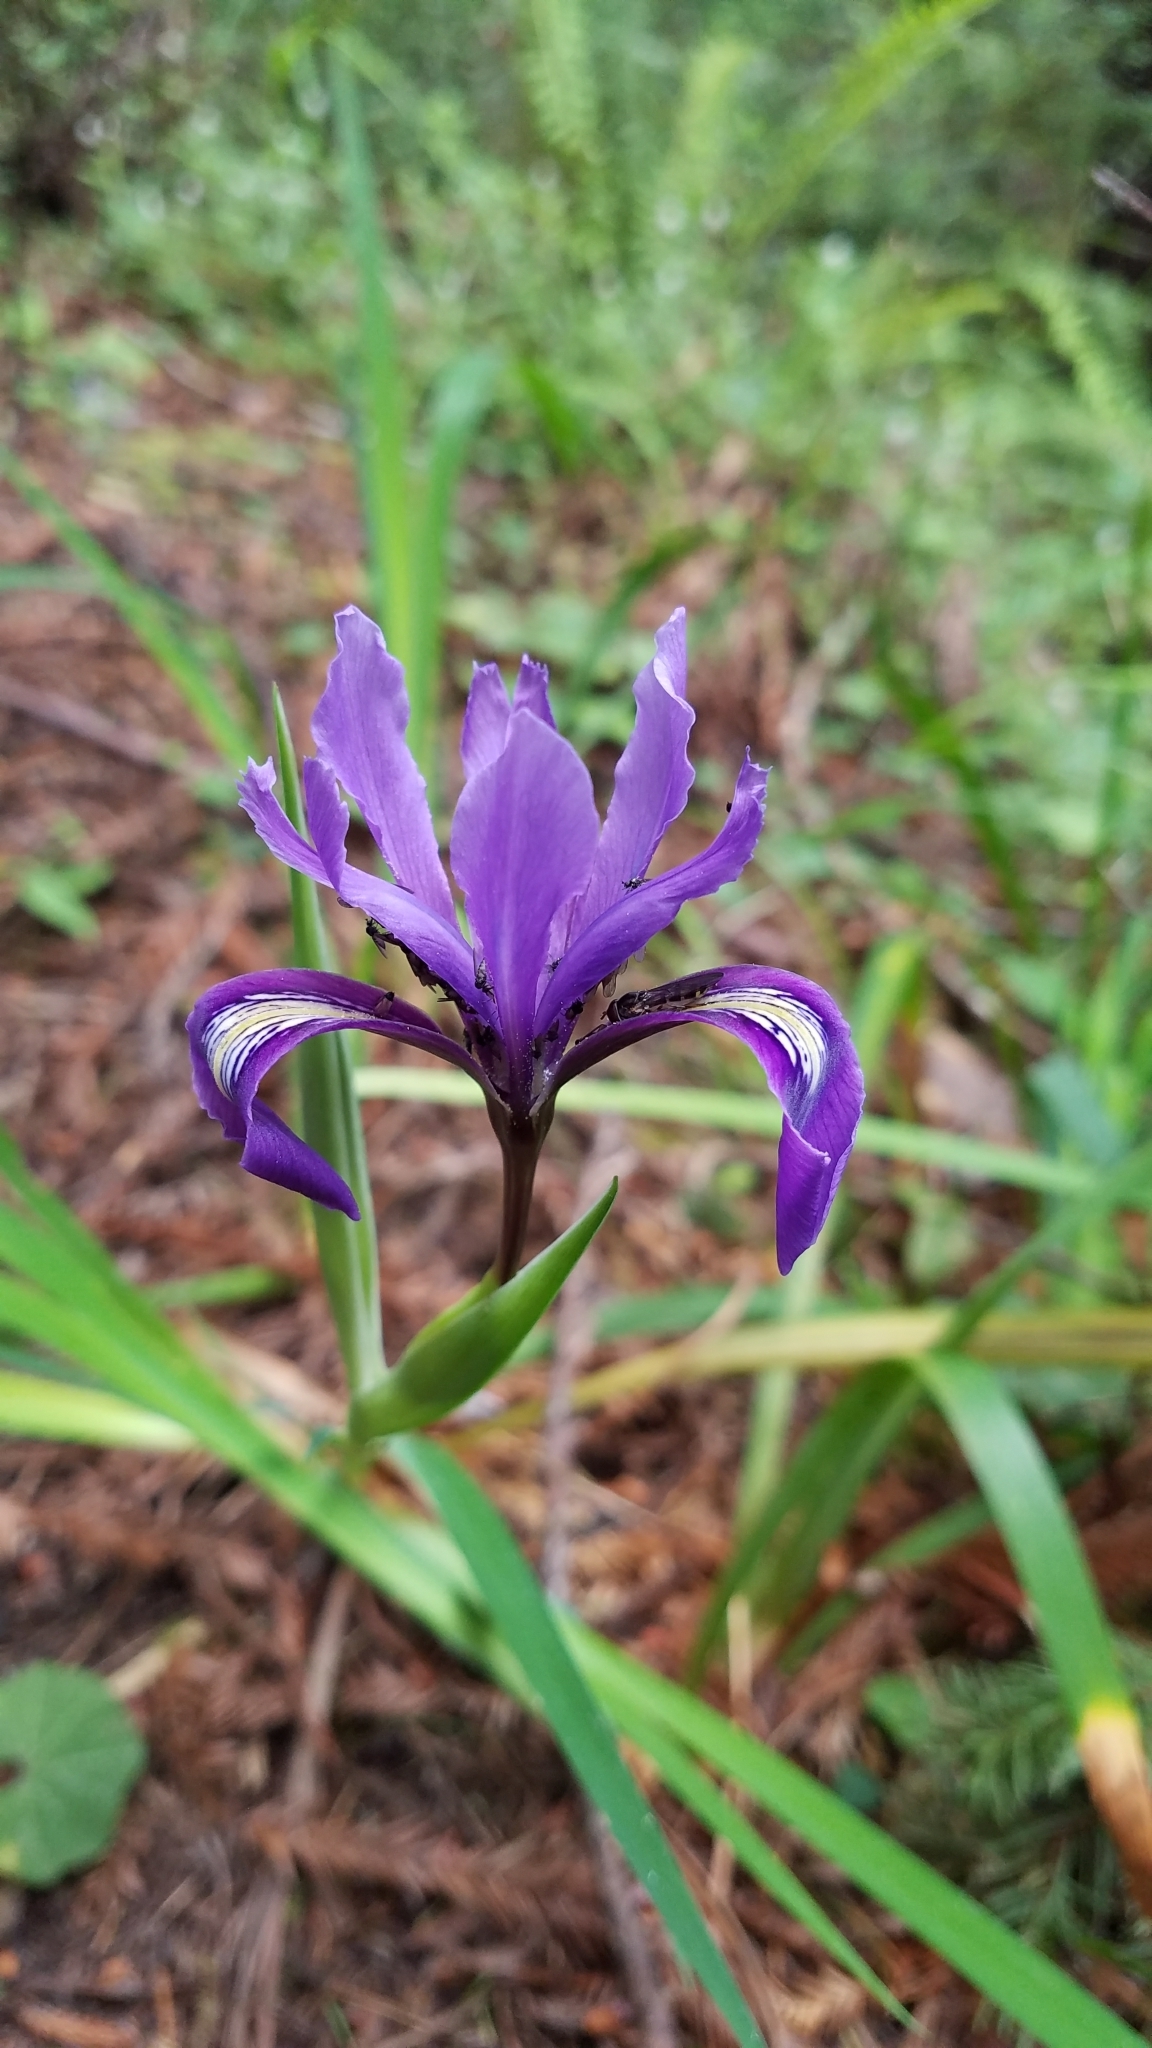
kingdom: Plantae
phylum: Tracheophyta
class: Liliopsida
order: Asparagales
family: Iridaceae
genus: Iris
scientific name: Iris douglasiana
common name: Marin iris
